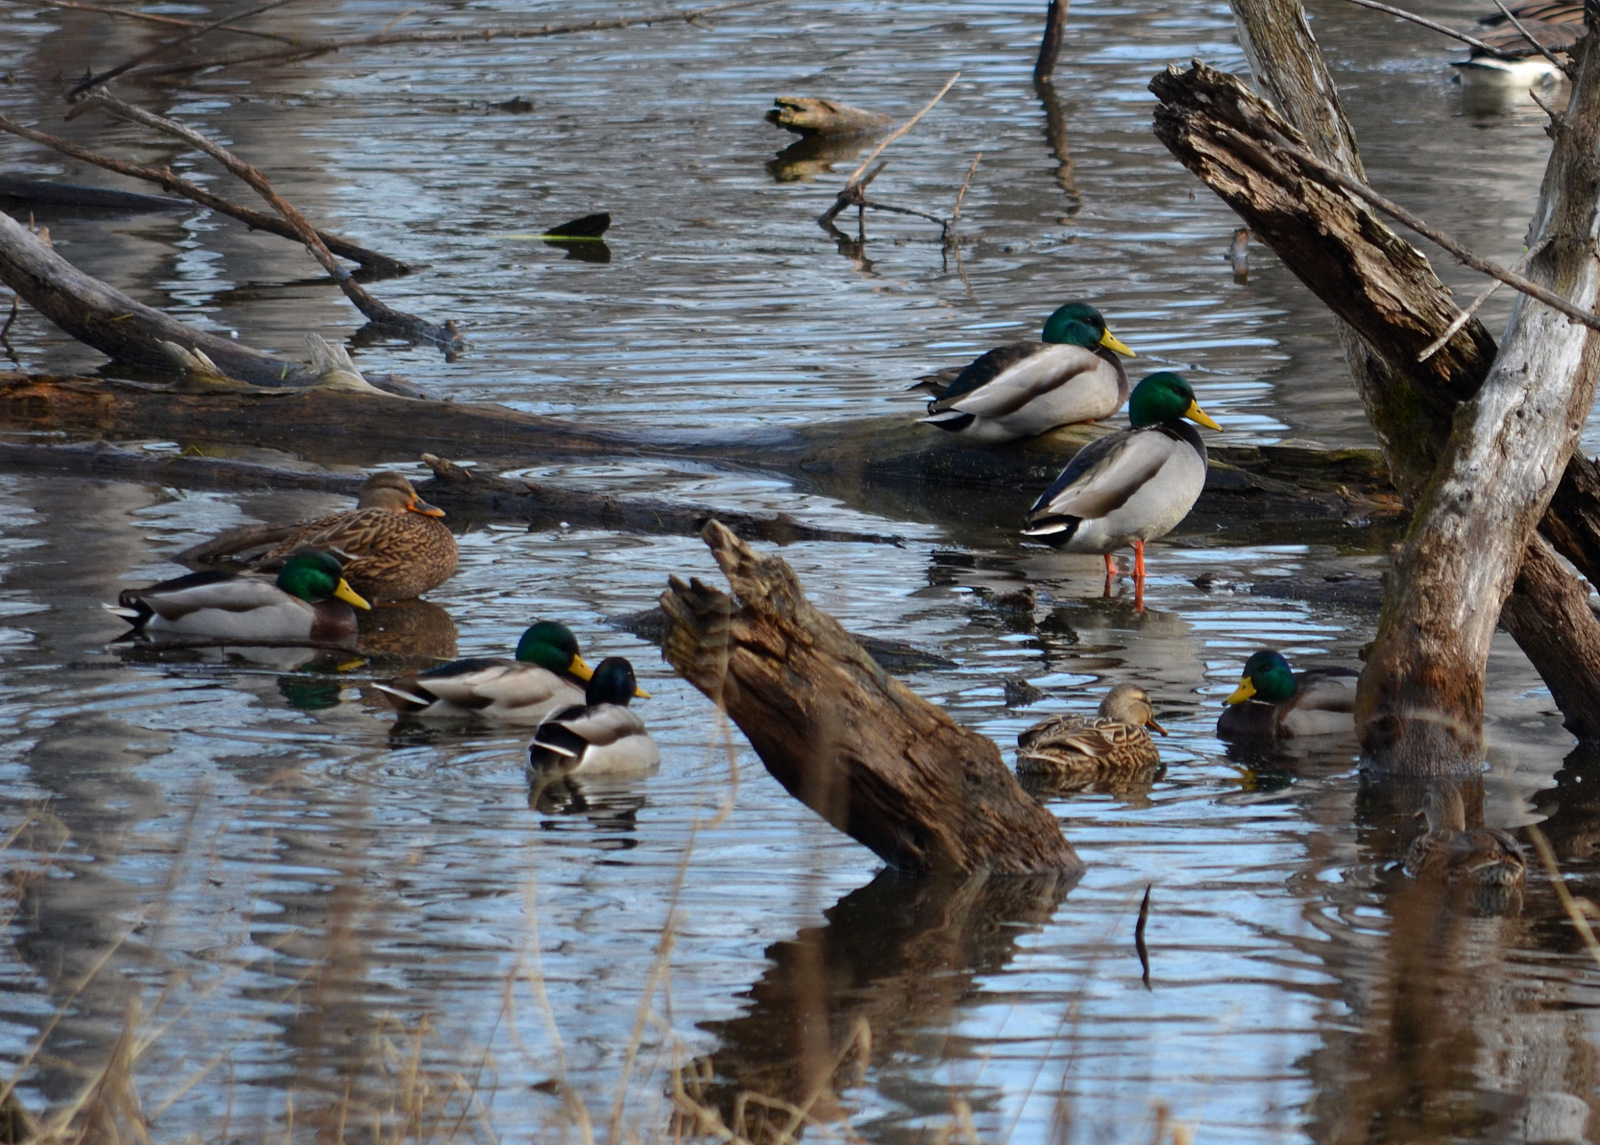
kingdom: Animalia
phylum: Chordata
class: Aves
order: Anseriformes
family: Anatidae
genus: Anas
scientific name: Anas platyrhynchos
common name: Mallard
